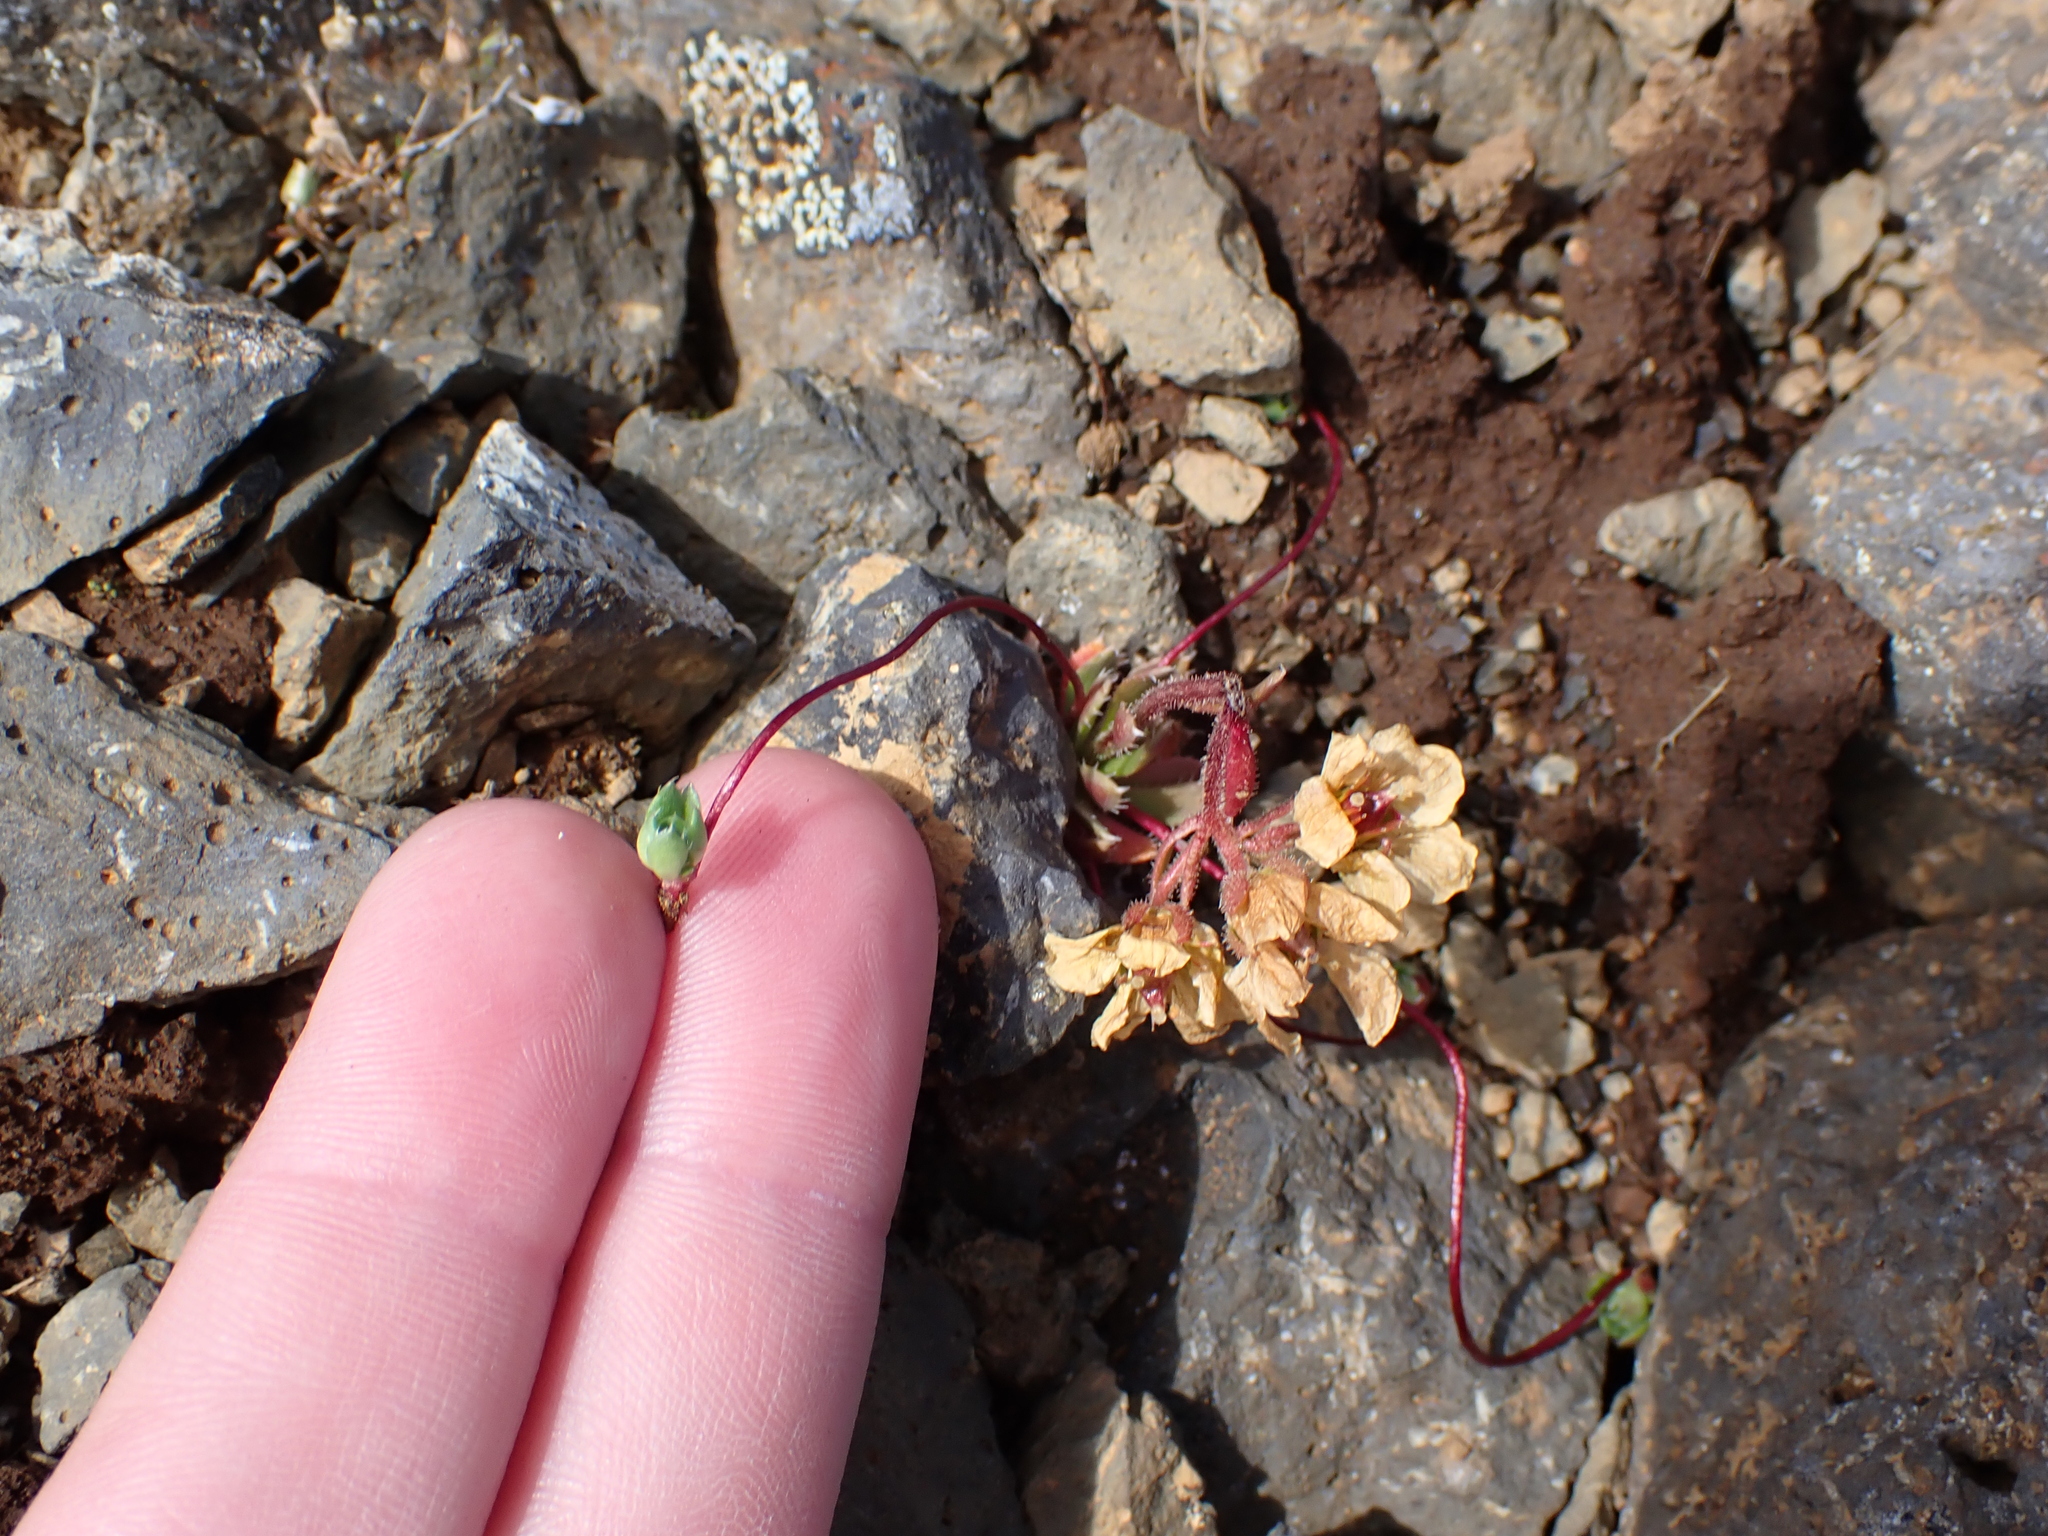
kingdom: Plantae
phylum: Tracheophyta
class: Magnoliopsida
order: Saxifragales
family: Saxifragaceae
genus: Saxifraga
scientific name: Saxifraga flagellaris
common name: Spider saxifrage
